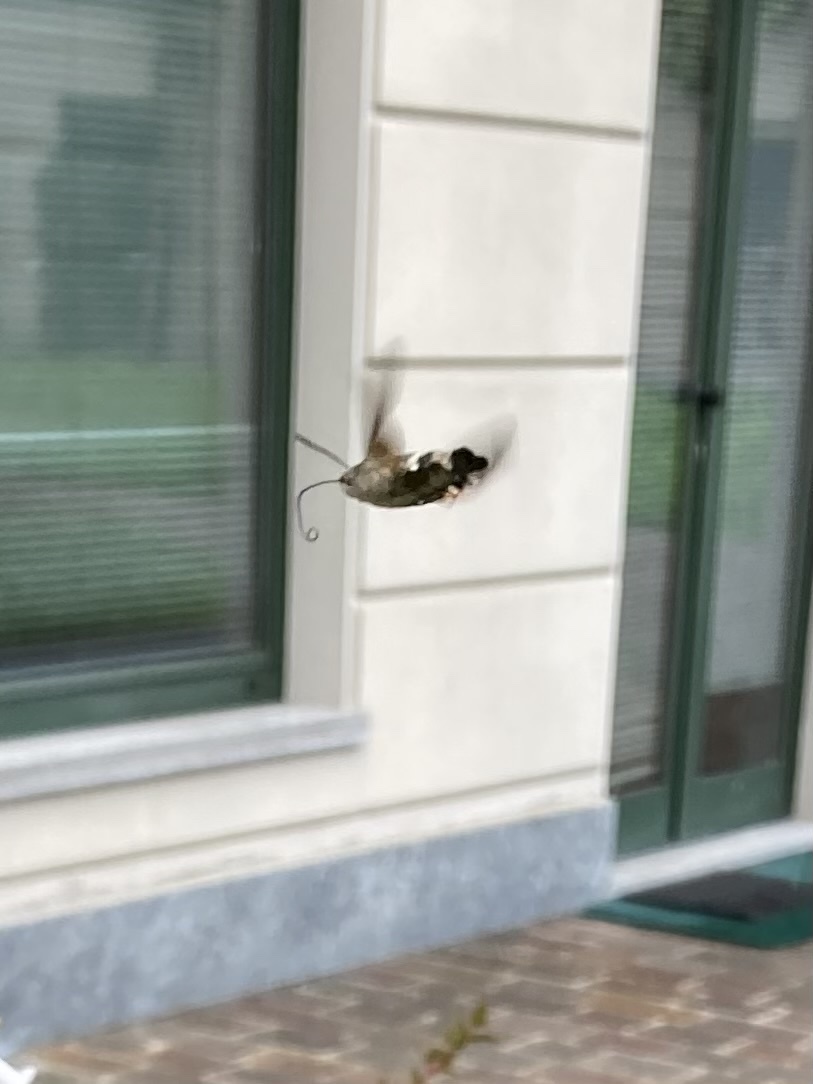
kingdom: Animalia
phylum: Arthropoda
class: Insecta
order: Lepidoptera
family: Sphingidae
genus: Macroglossum
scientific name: Macroglossum stellatarum
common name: Humming-bird hawk-moth
